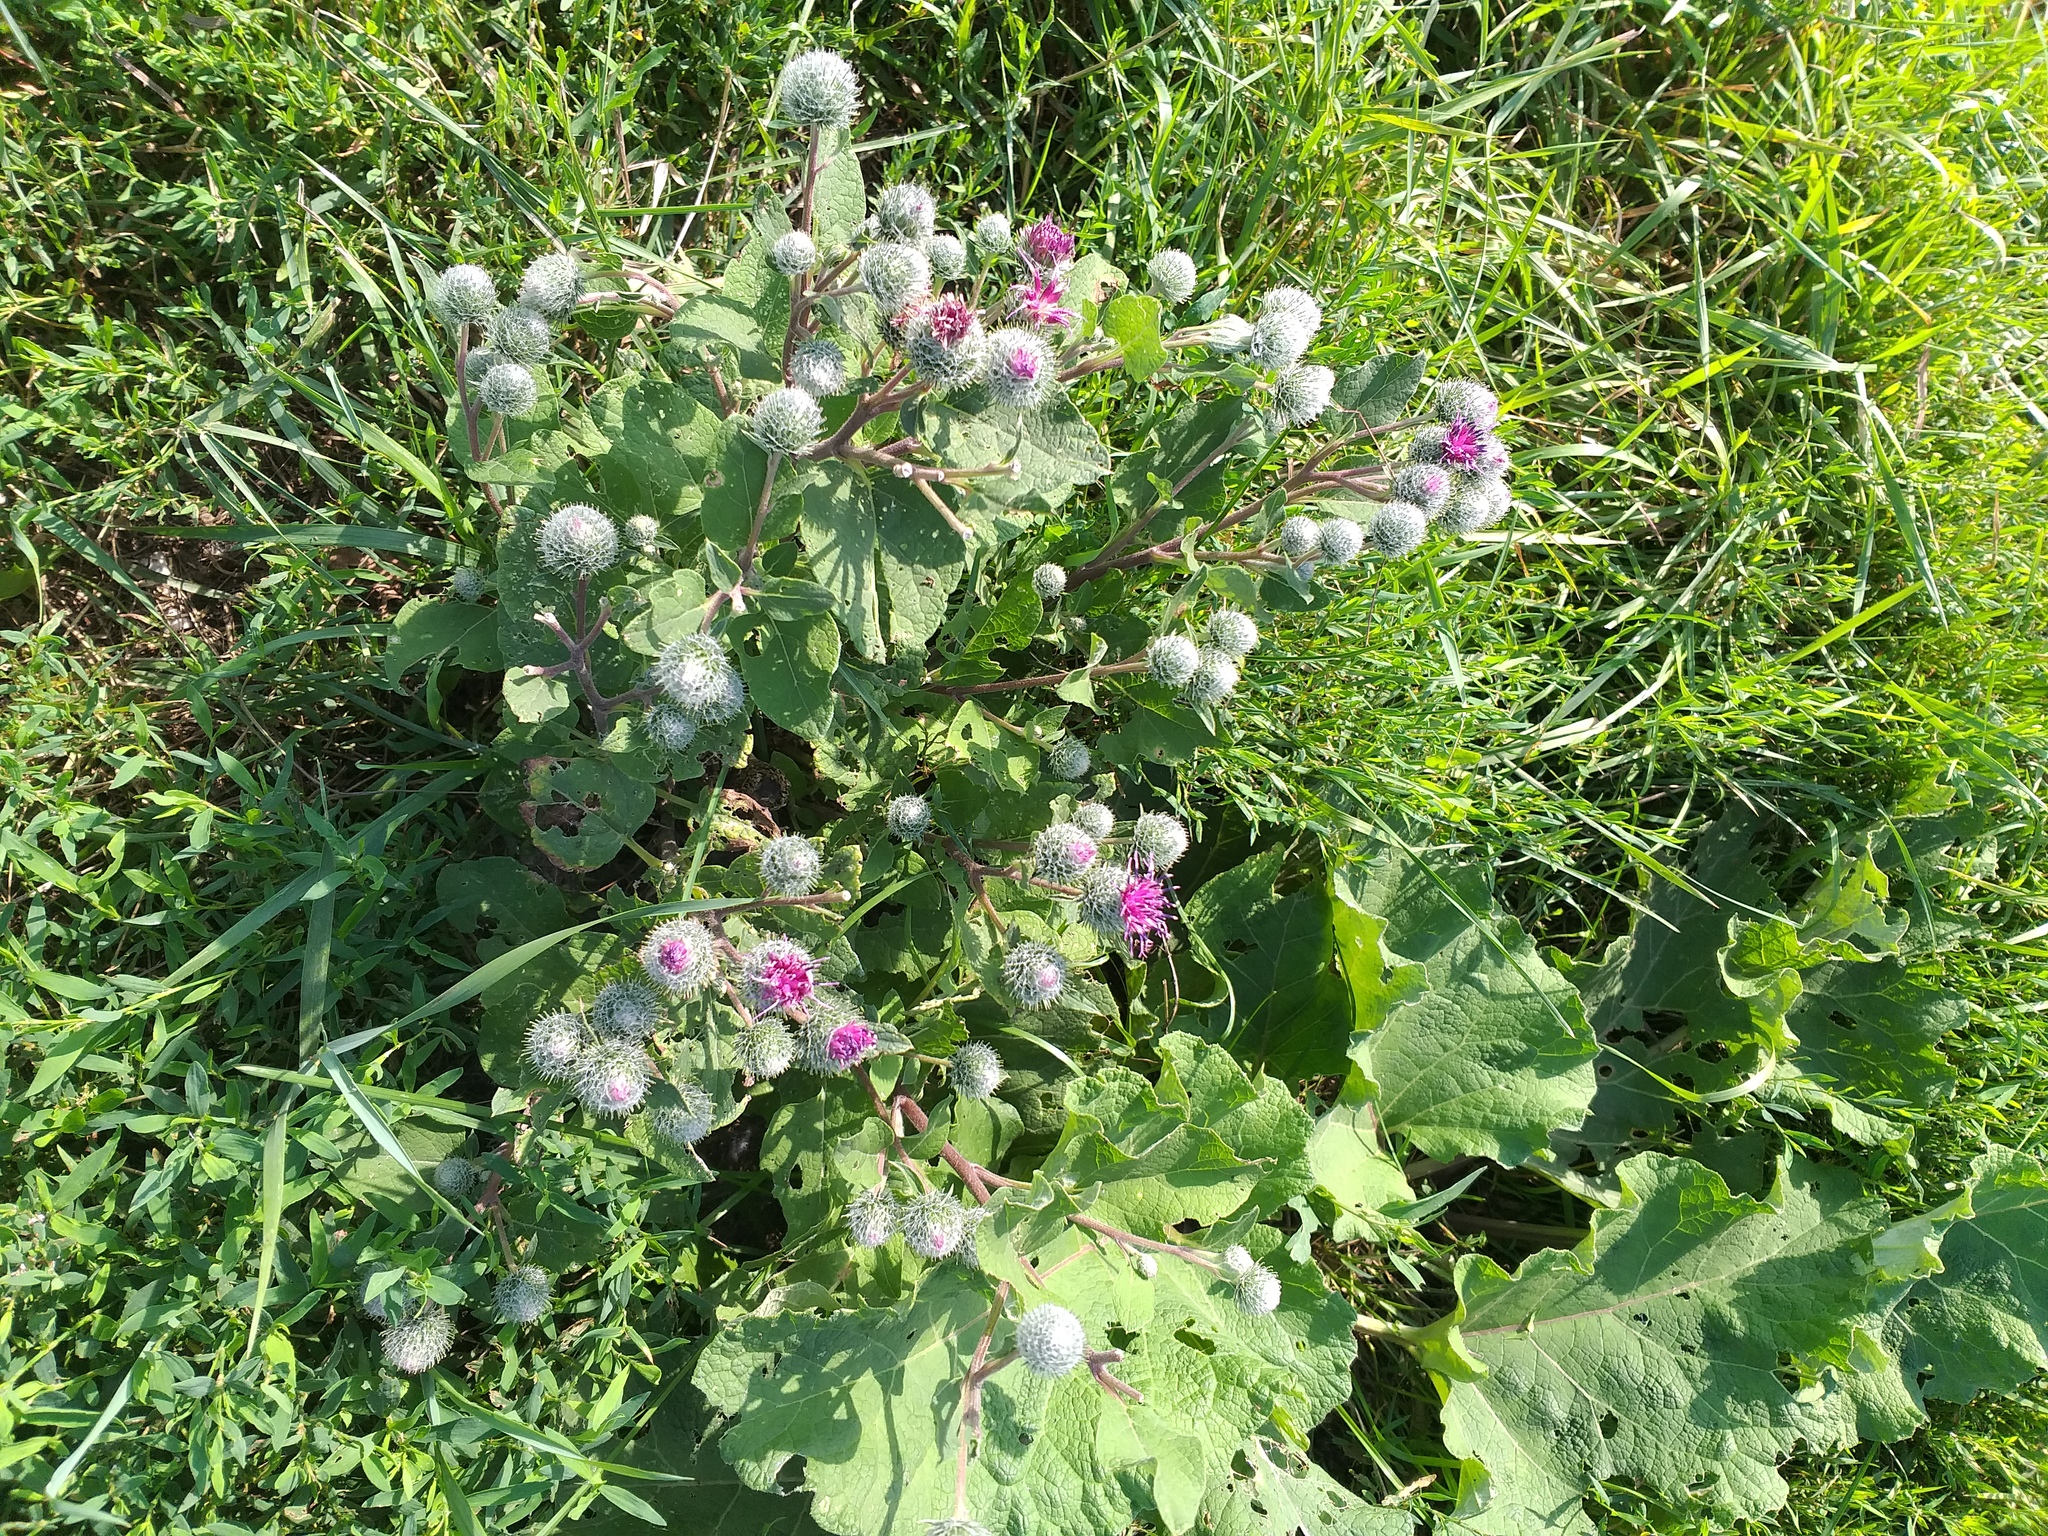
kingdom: Plantae
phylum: Tracheophyta
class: Magnoliopsida
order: Asterales
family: Asteraceae
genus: Arctium
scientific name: Arctium tomentosum
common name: Woolly burdock
